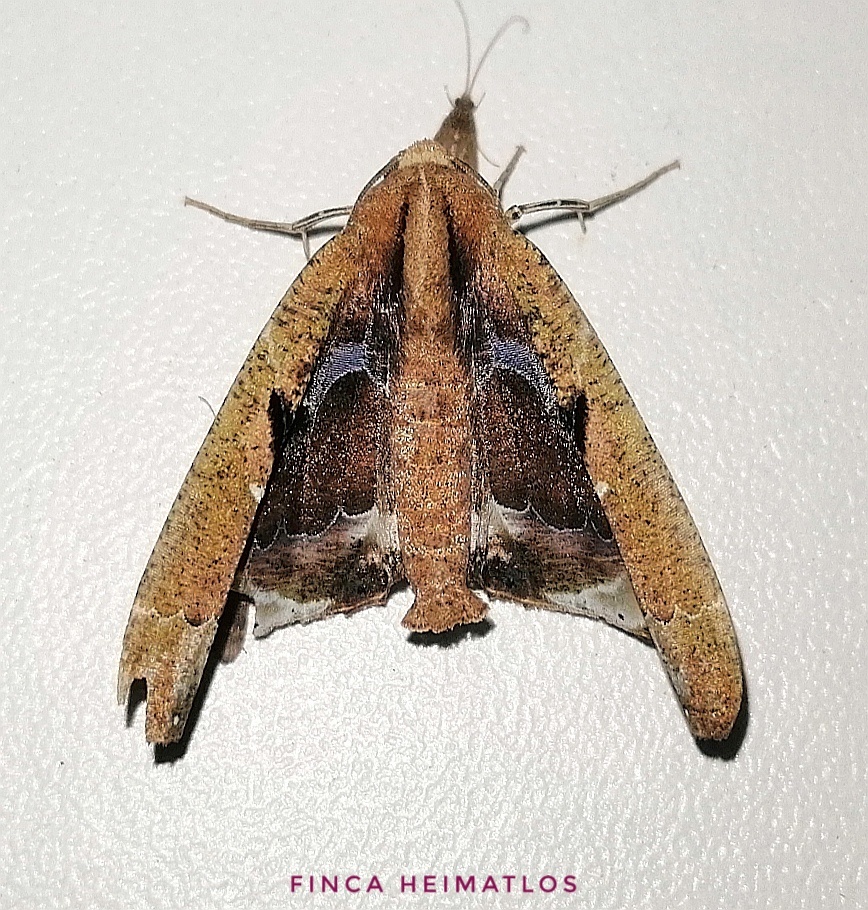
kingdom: Animalia
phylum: Arthropoda
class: Insecta
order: Lepidoptera
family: Geometridae
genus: Pero
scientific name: Pero ogmopaea
